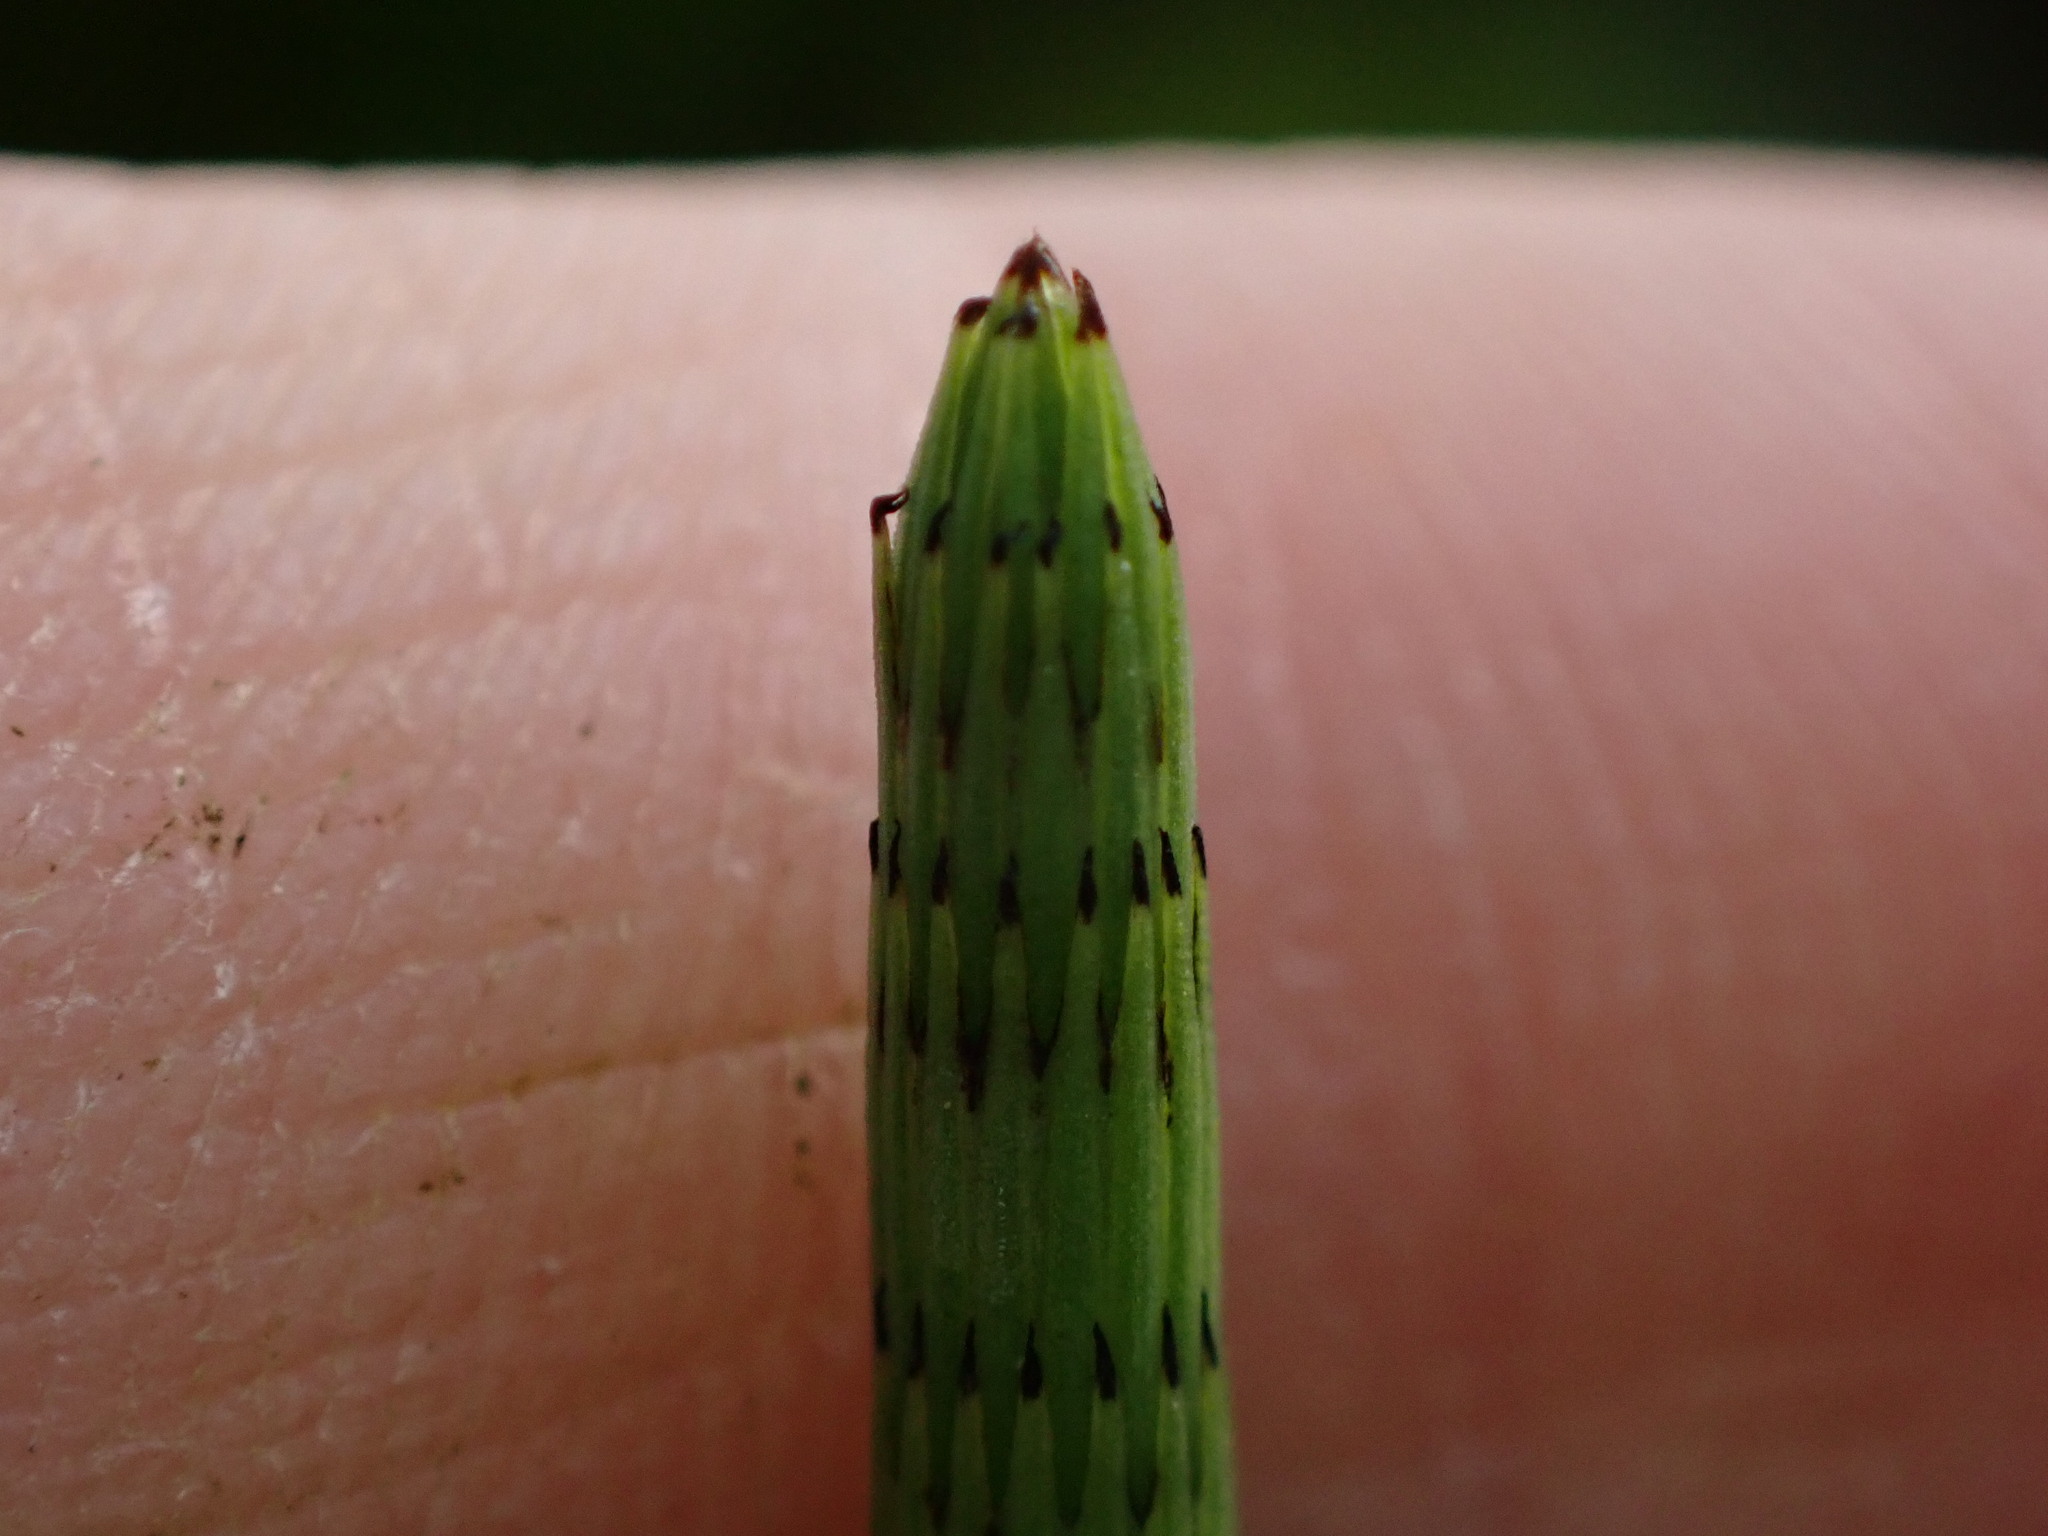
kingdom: Plantae
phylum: Tracheophyta
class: Polypodiopsida
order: Equisetales
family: Equisetaceae
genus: Equisetum
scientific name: Equisetum fluviatile
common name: Water horsetail
